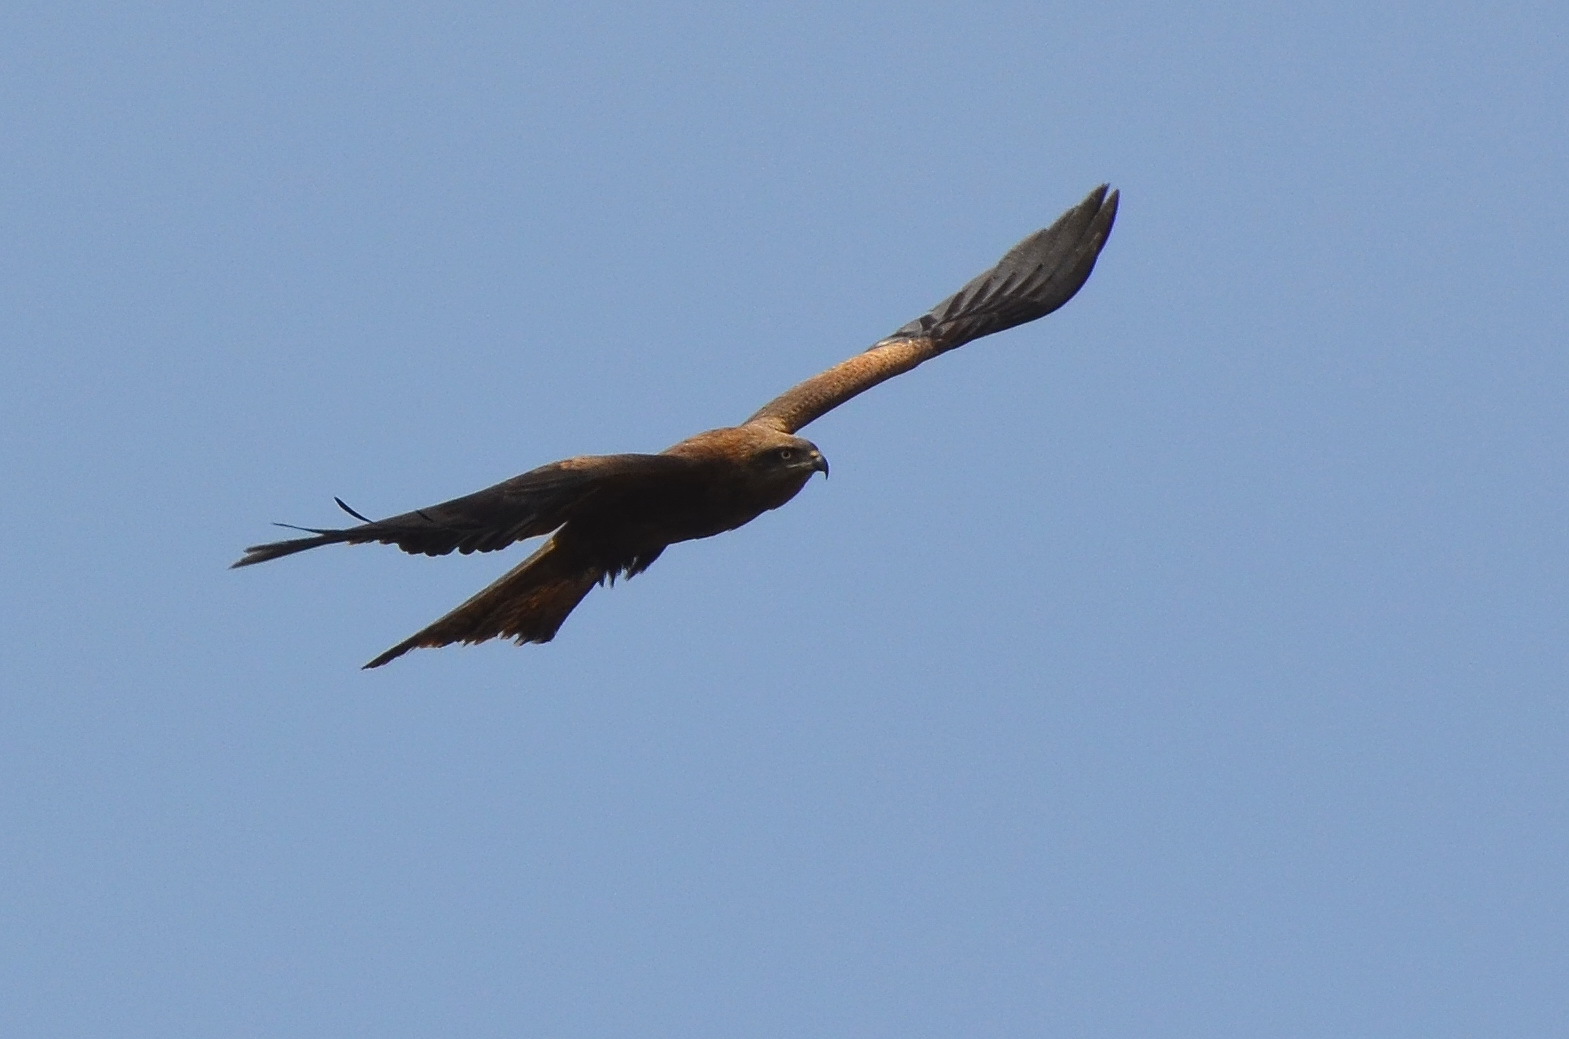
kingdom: Animalia
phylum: Chordata
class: Aves
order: Accipitriformes
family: Accipitridae
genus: Milvus
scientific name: Milvus migrans
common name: Black kite
